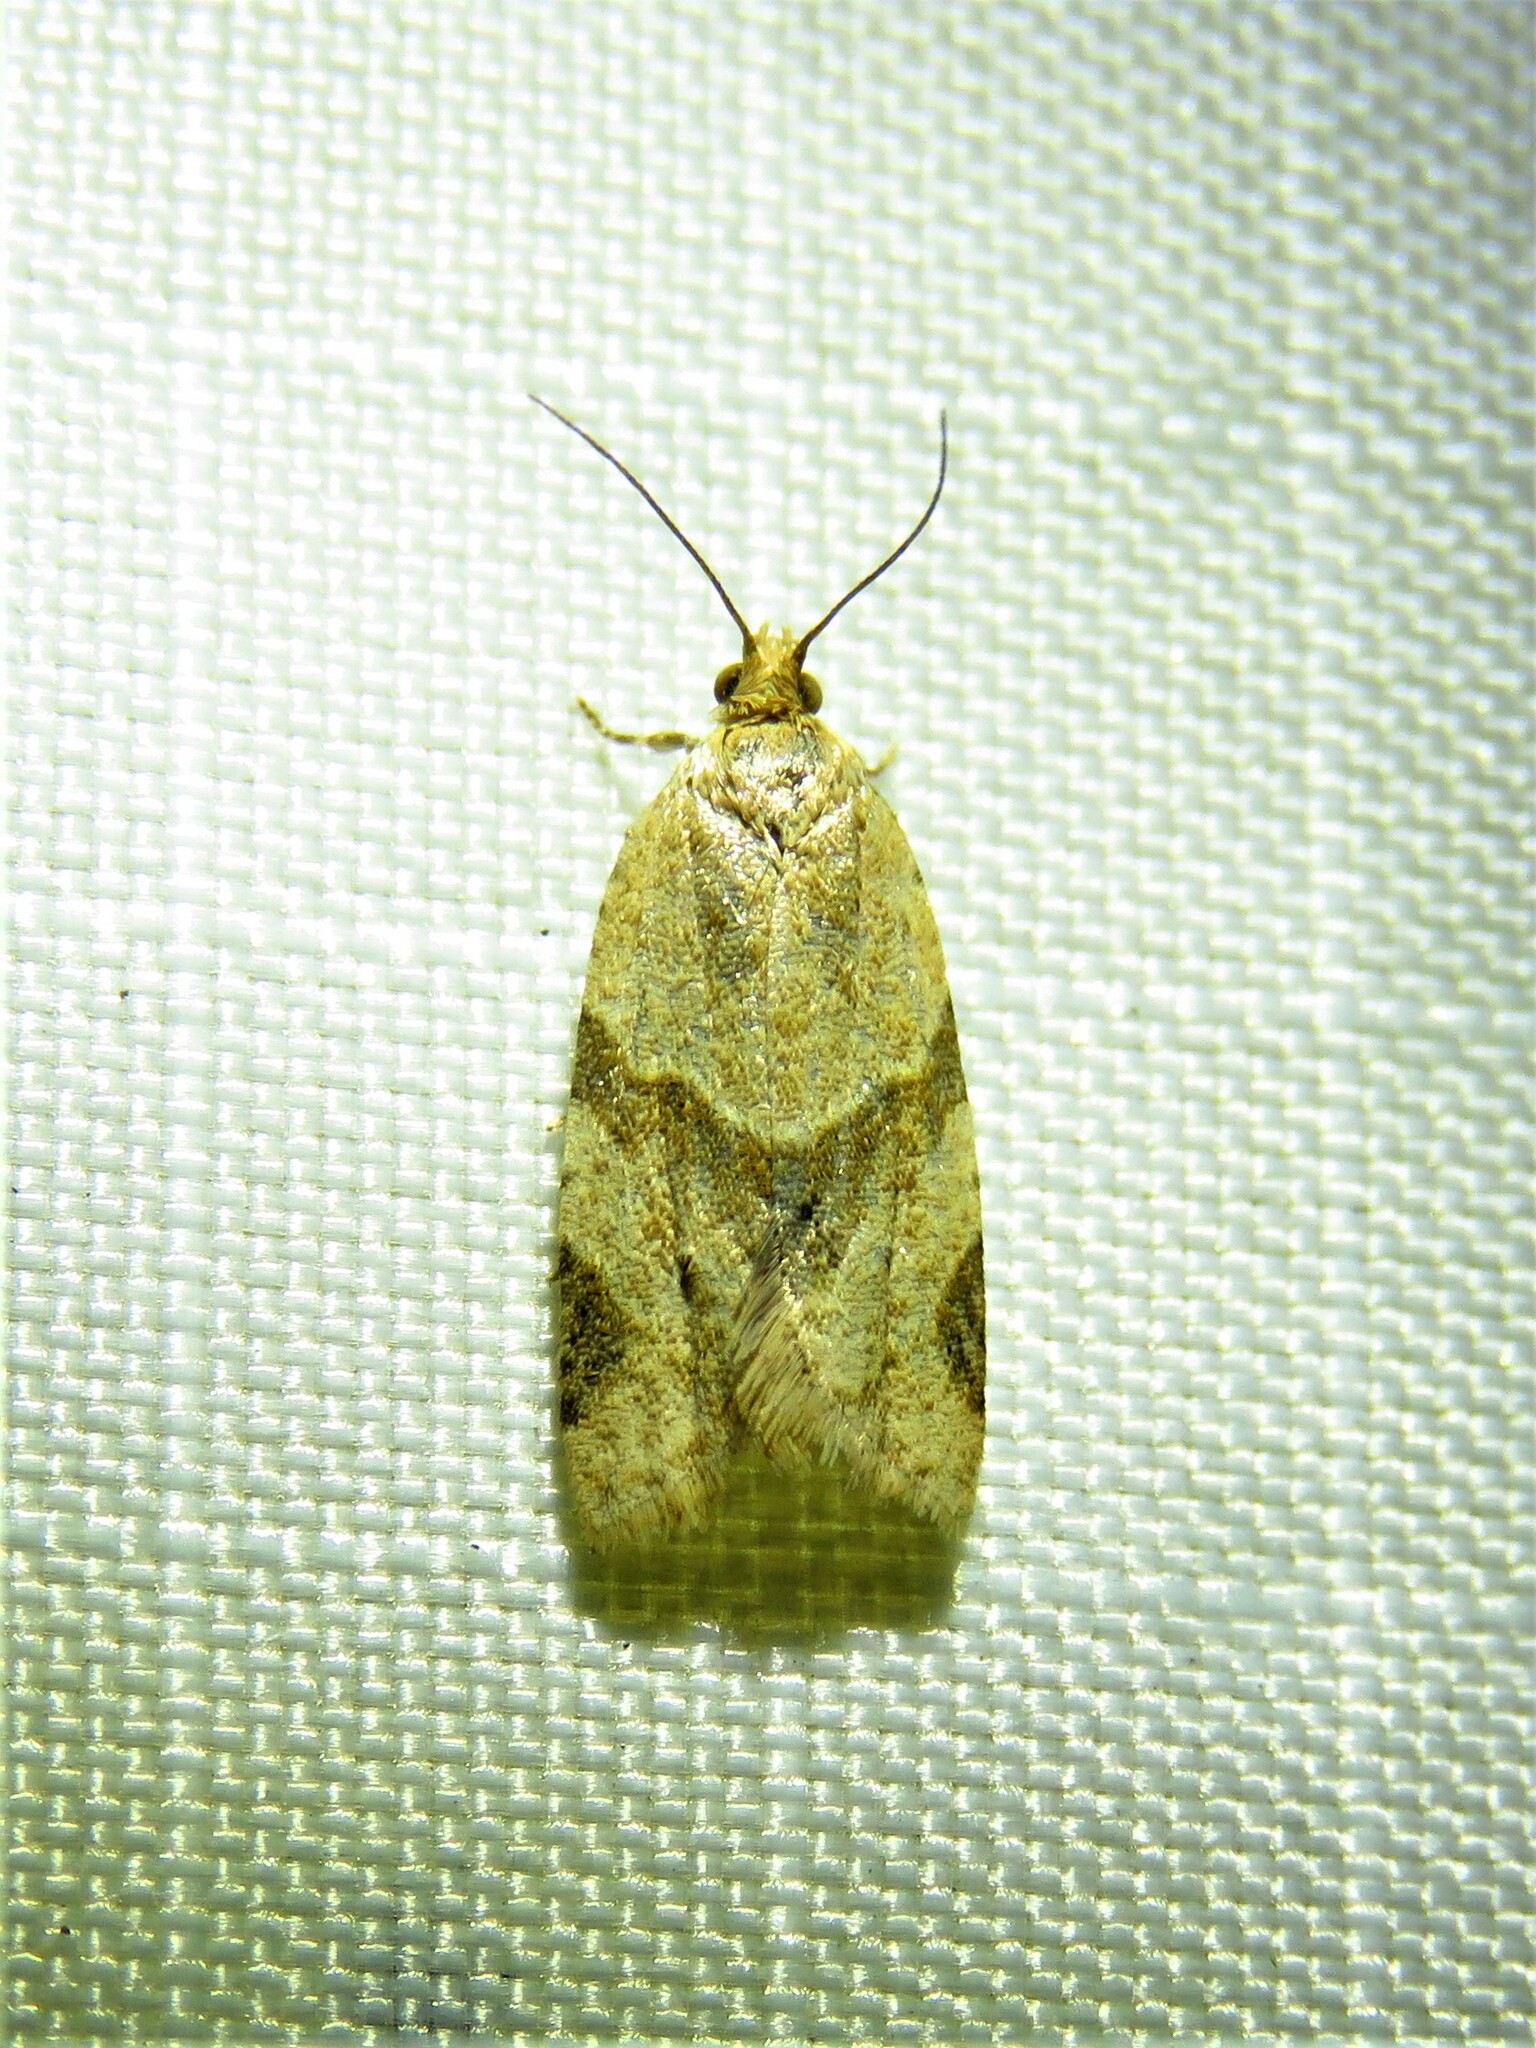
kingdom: Animalia
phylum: Arthropoda
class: Insecta
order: Lepidoptera
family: Tortricidae
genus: Clepsis
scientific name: Clepsis peritana
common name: Garden tortrix
